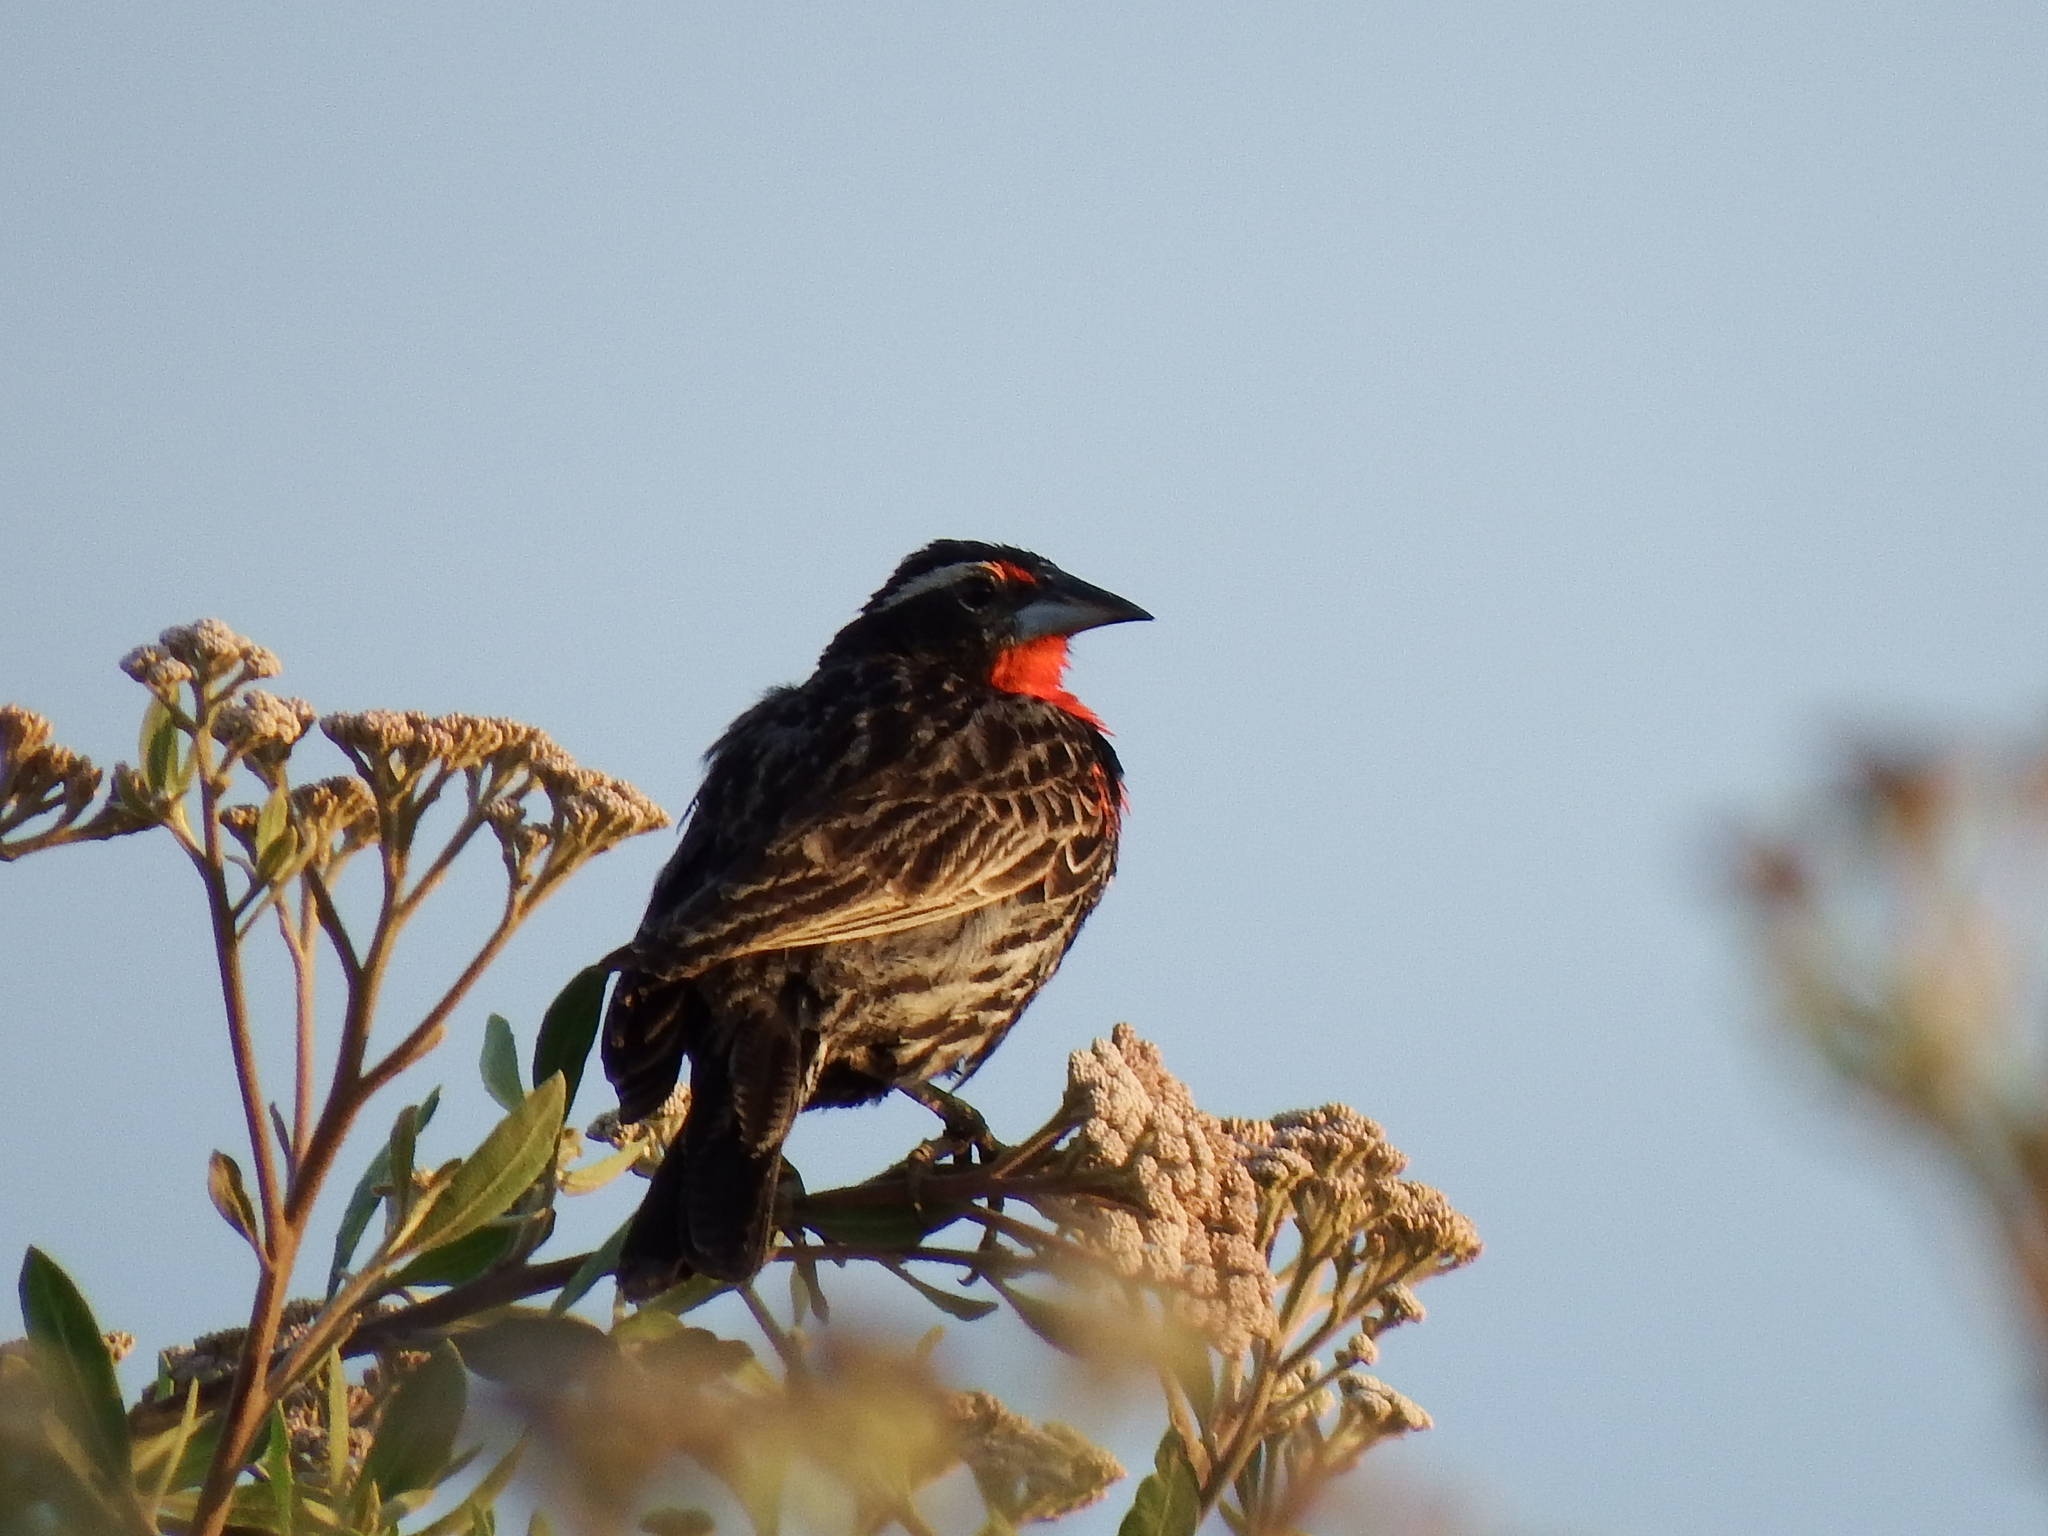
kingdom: Animalia
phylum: Chordata
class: Aves
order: Passeriformes
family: Icteridae
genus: Sturnella
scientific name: Sturnella bellicosa
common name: Peruvian meadowlark
